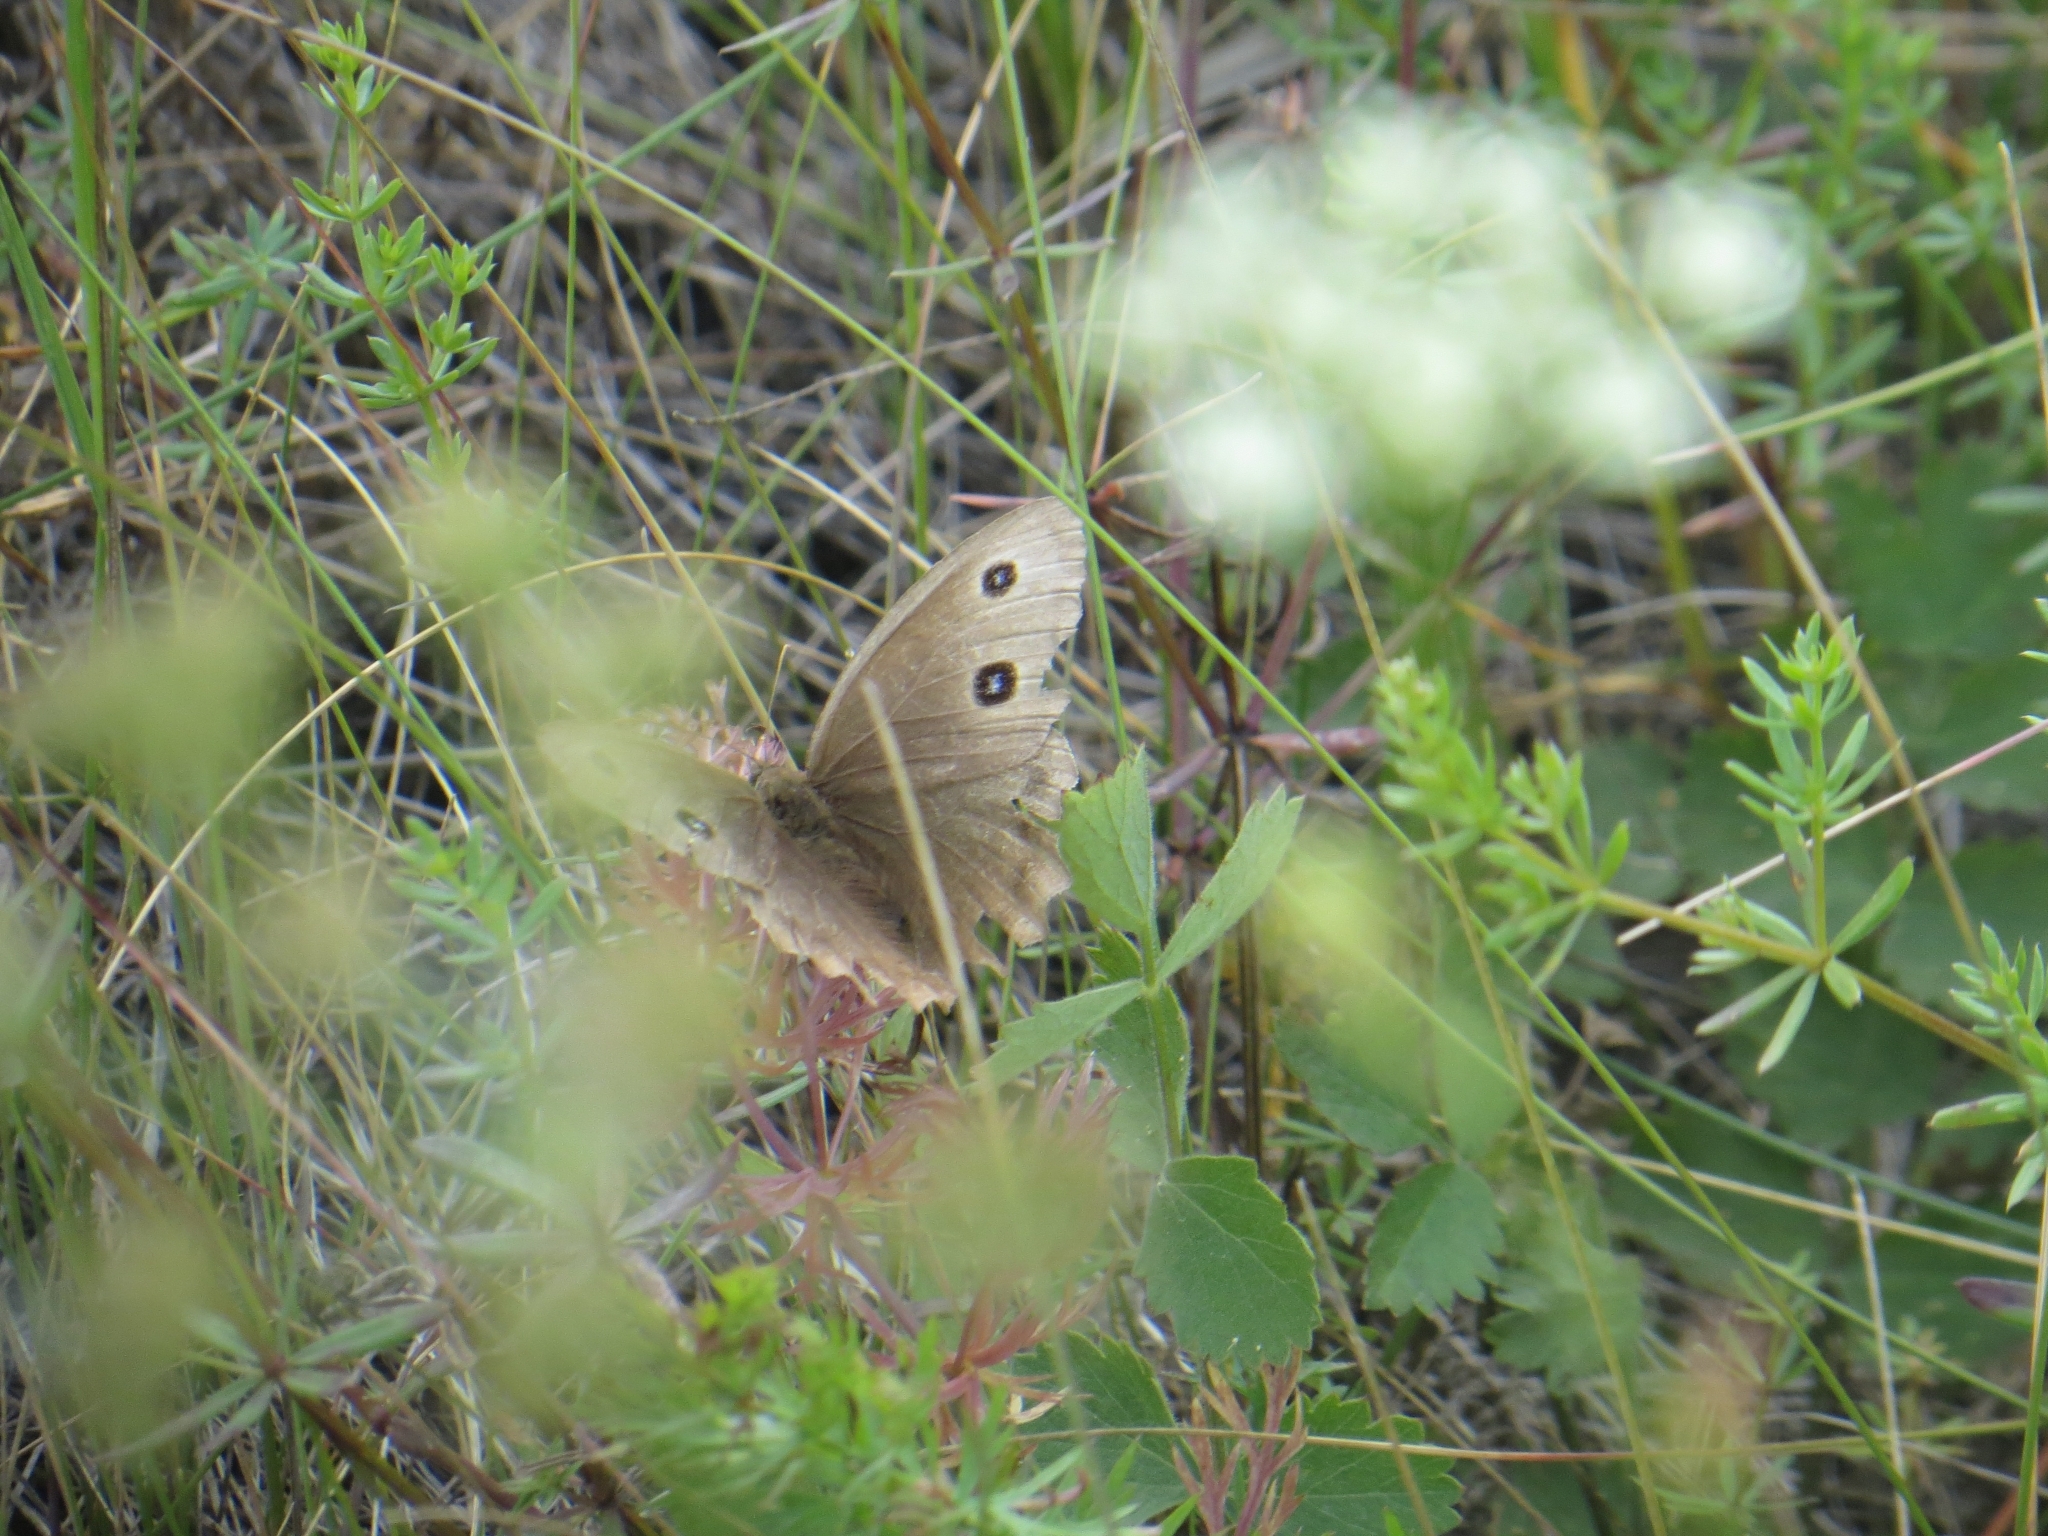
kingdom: Animalia
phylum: Arthropoda
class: Insecta
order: Lepidoptera
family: Nymphalidae
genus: Minois
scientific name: Minois dryas
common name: Dryad
